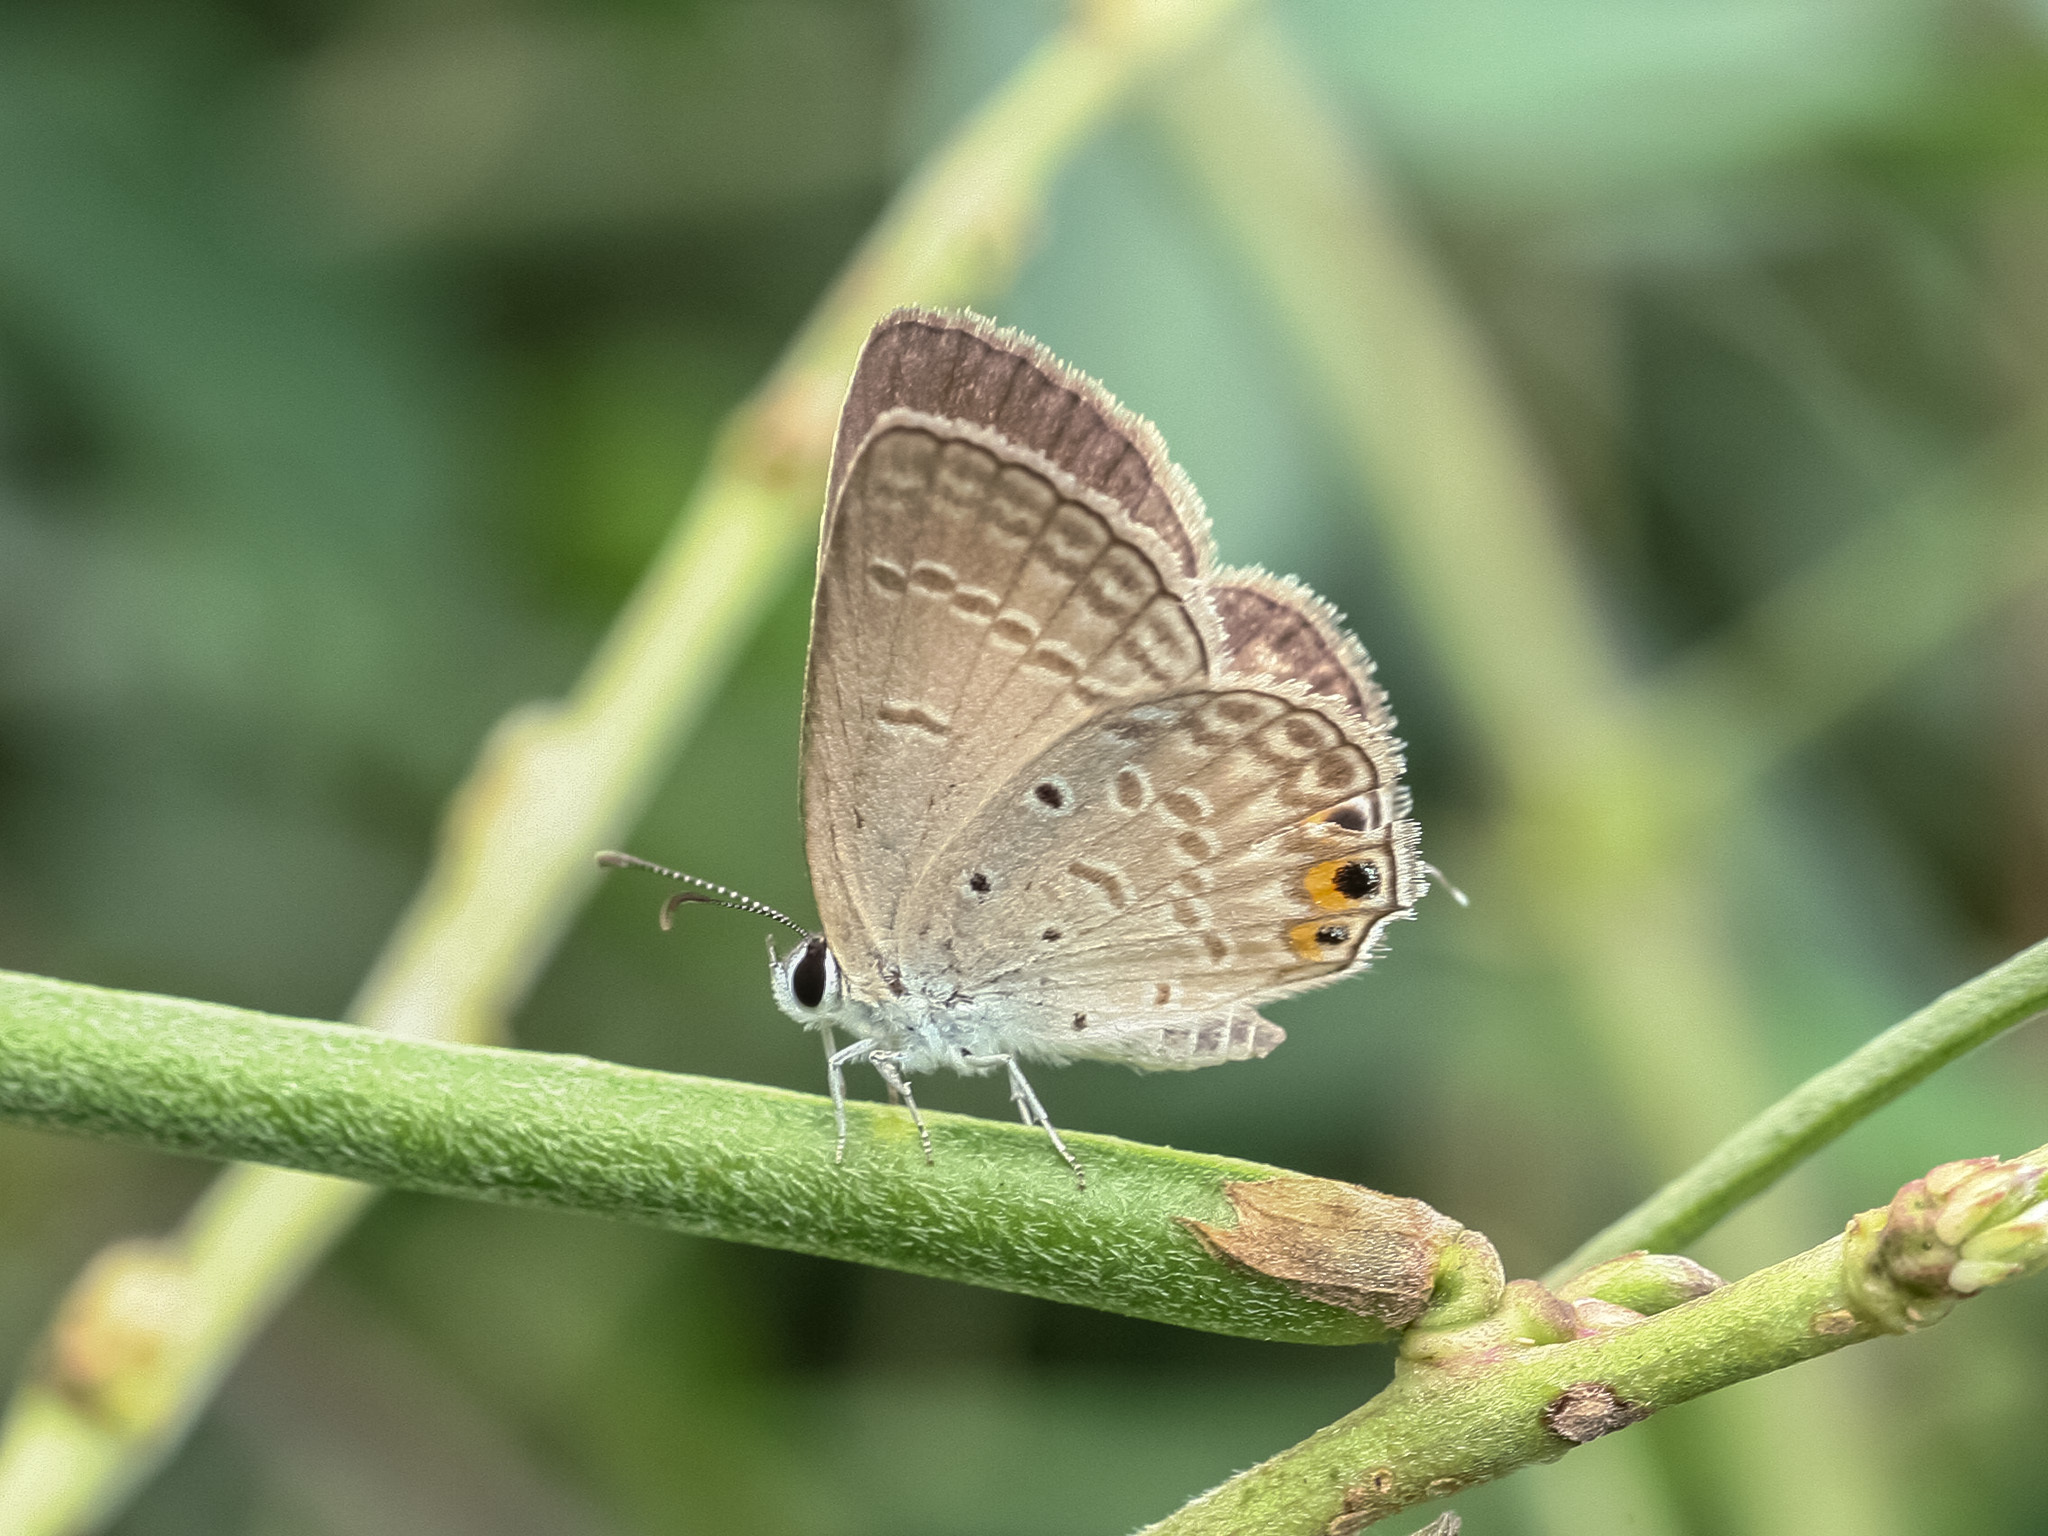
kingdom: Animalia
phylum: Arthropoda
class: Insecta
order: Lepidoptera
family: Lycaenidae
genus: Euchrysops
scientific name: Euchrysops cnejus
